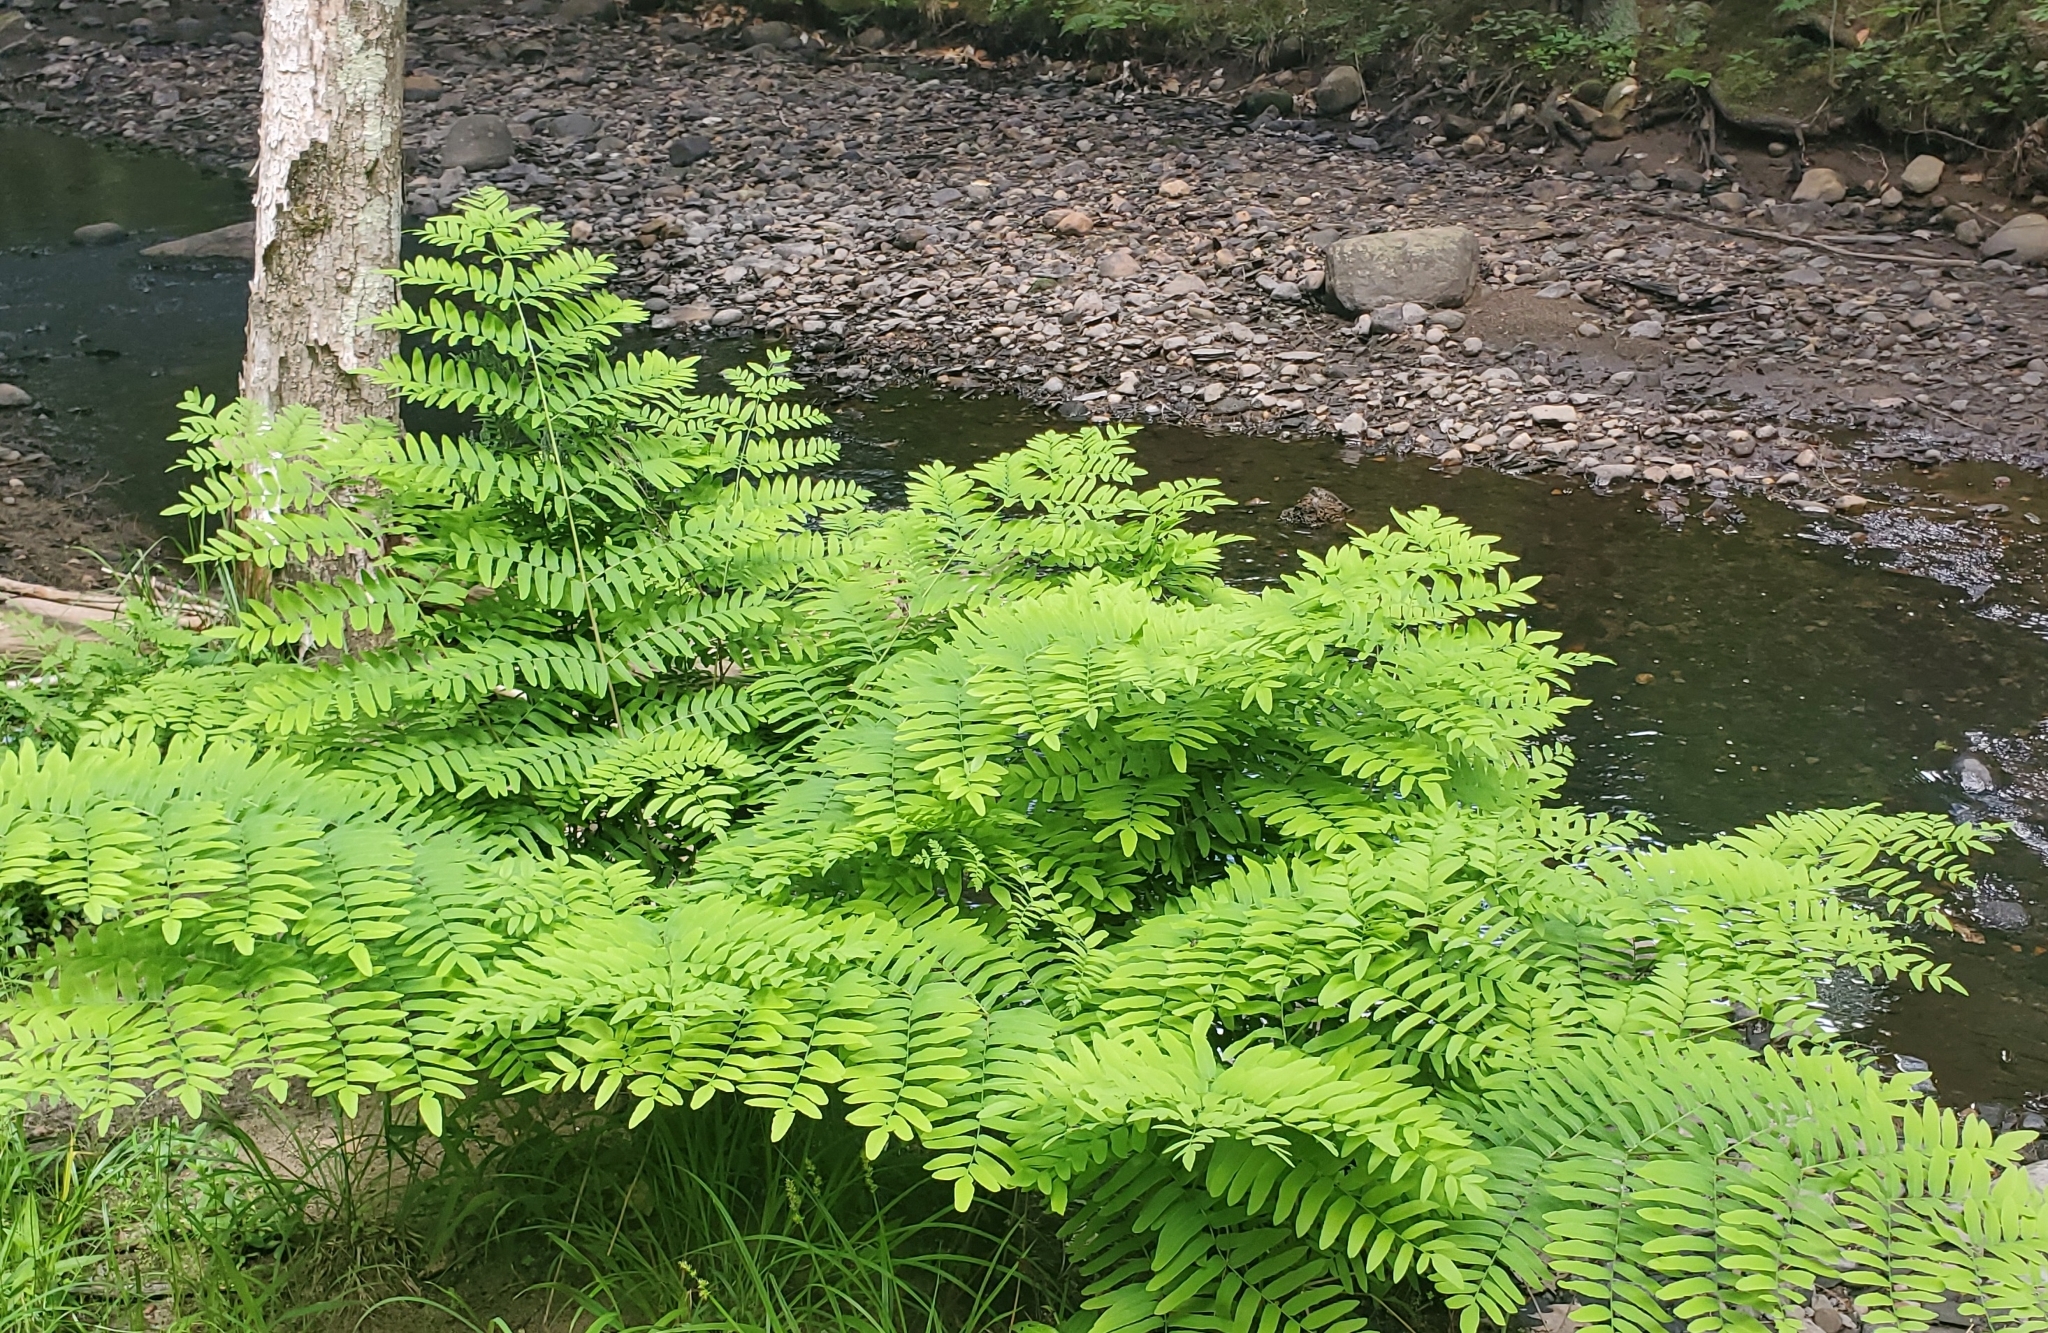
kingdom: Plantae
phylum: Tracheophyta
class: Polypodiopsida
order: Osmundales
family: Osmundaceae
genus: Osmunda
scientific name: Osmunda spectabilis
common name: American royal fern
